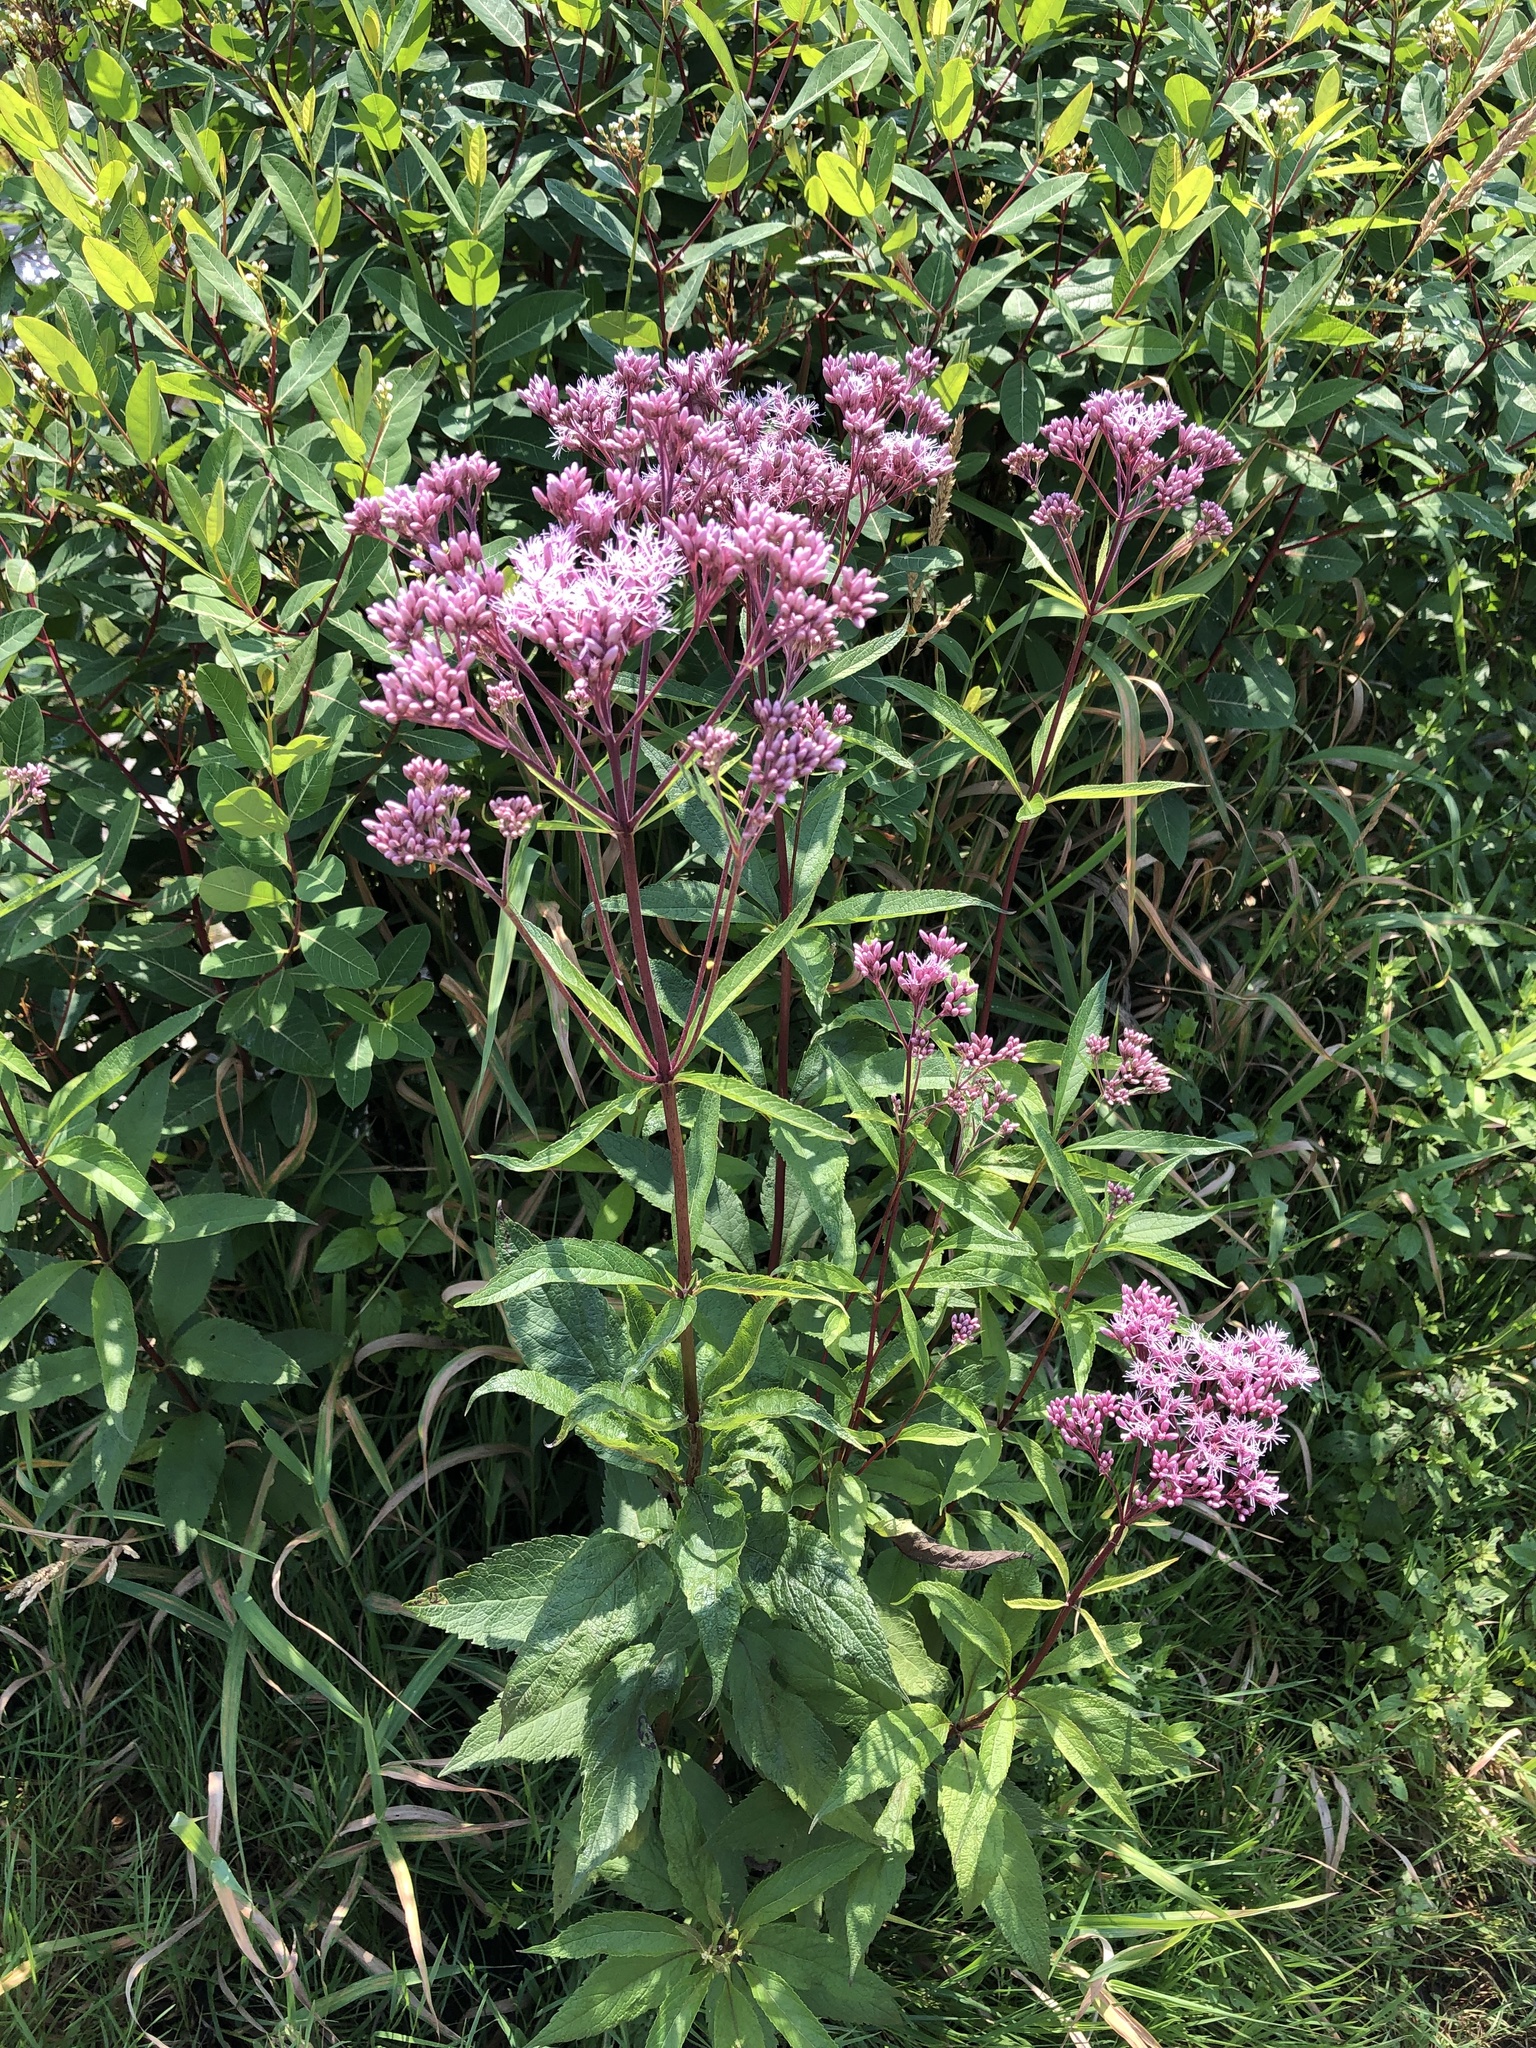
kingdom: Plantae
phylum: Tracheophyta
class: Magnoliopsida
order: Asterales
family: Asteraceae
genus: Eutrochium
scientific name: Eutrochium maculatum
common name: Spotted joe pye weed
